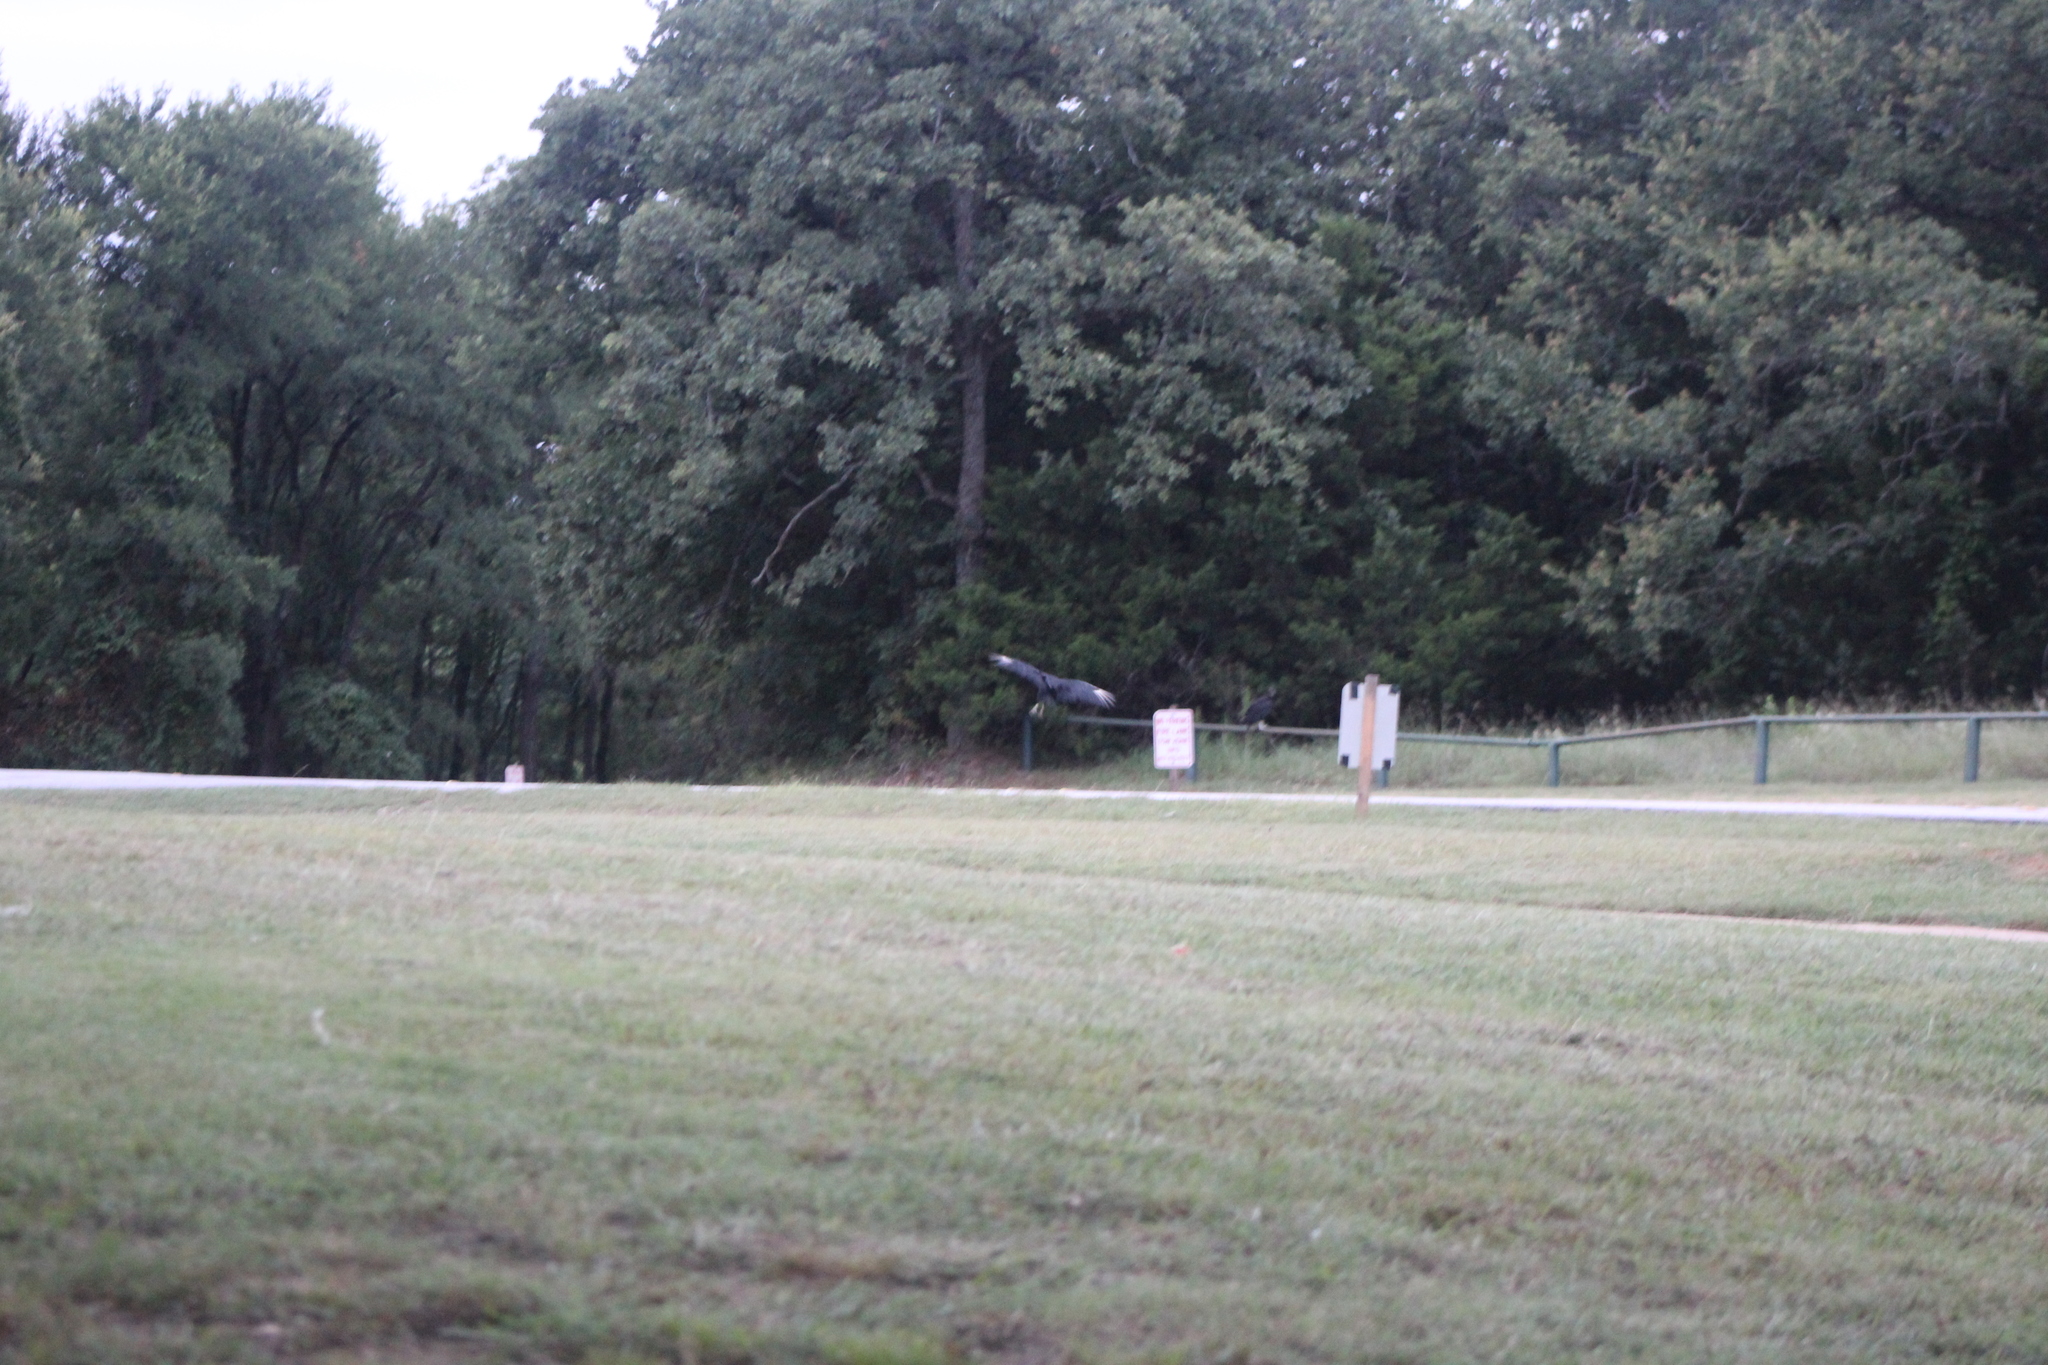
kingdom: Animalia
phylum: Chordata
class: Aves
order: Accipitriformes
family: Cathartidae
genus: Coragyps
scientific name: Coragyps atratus
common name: Black vulture
